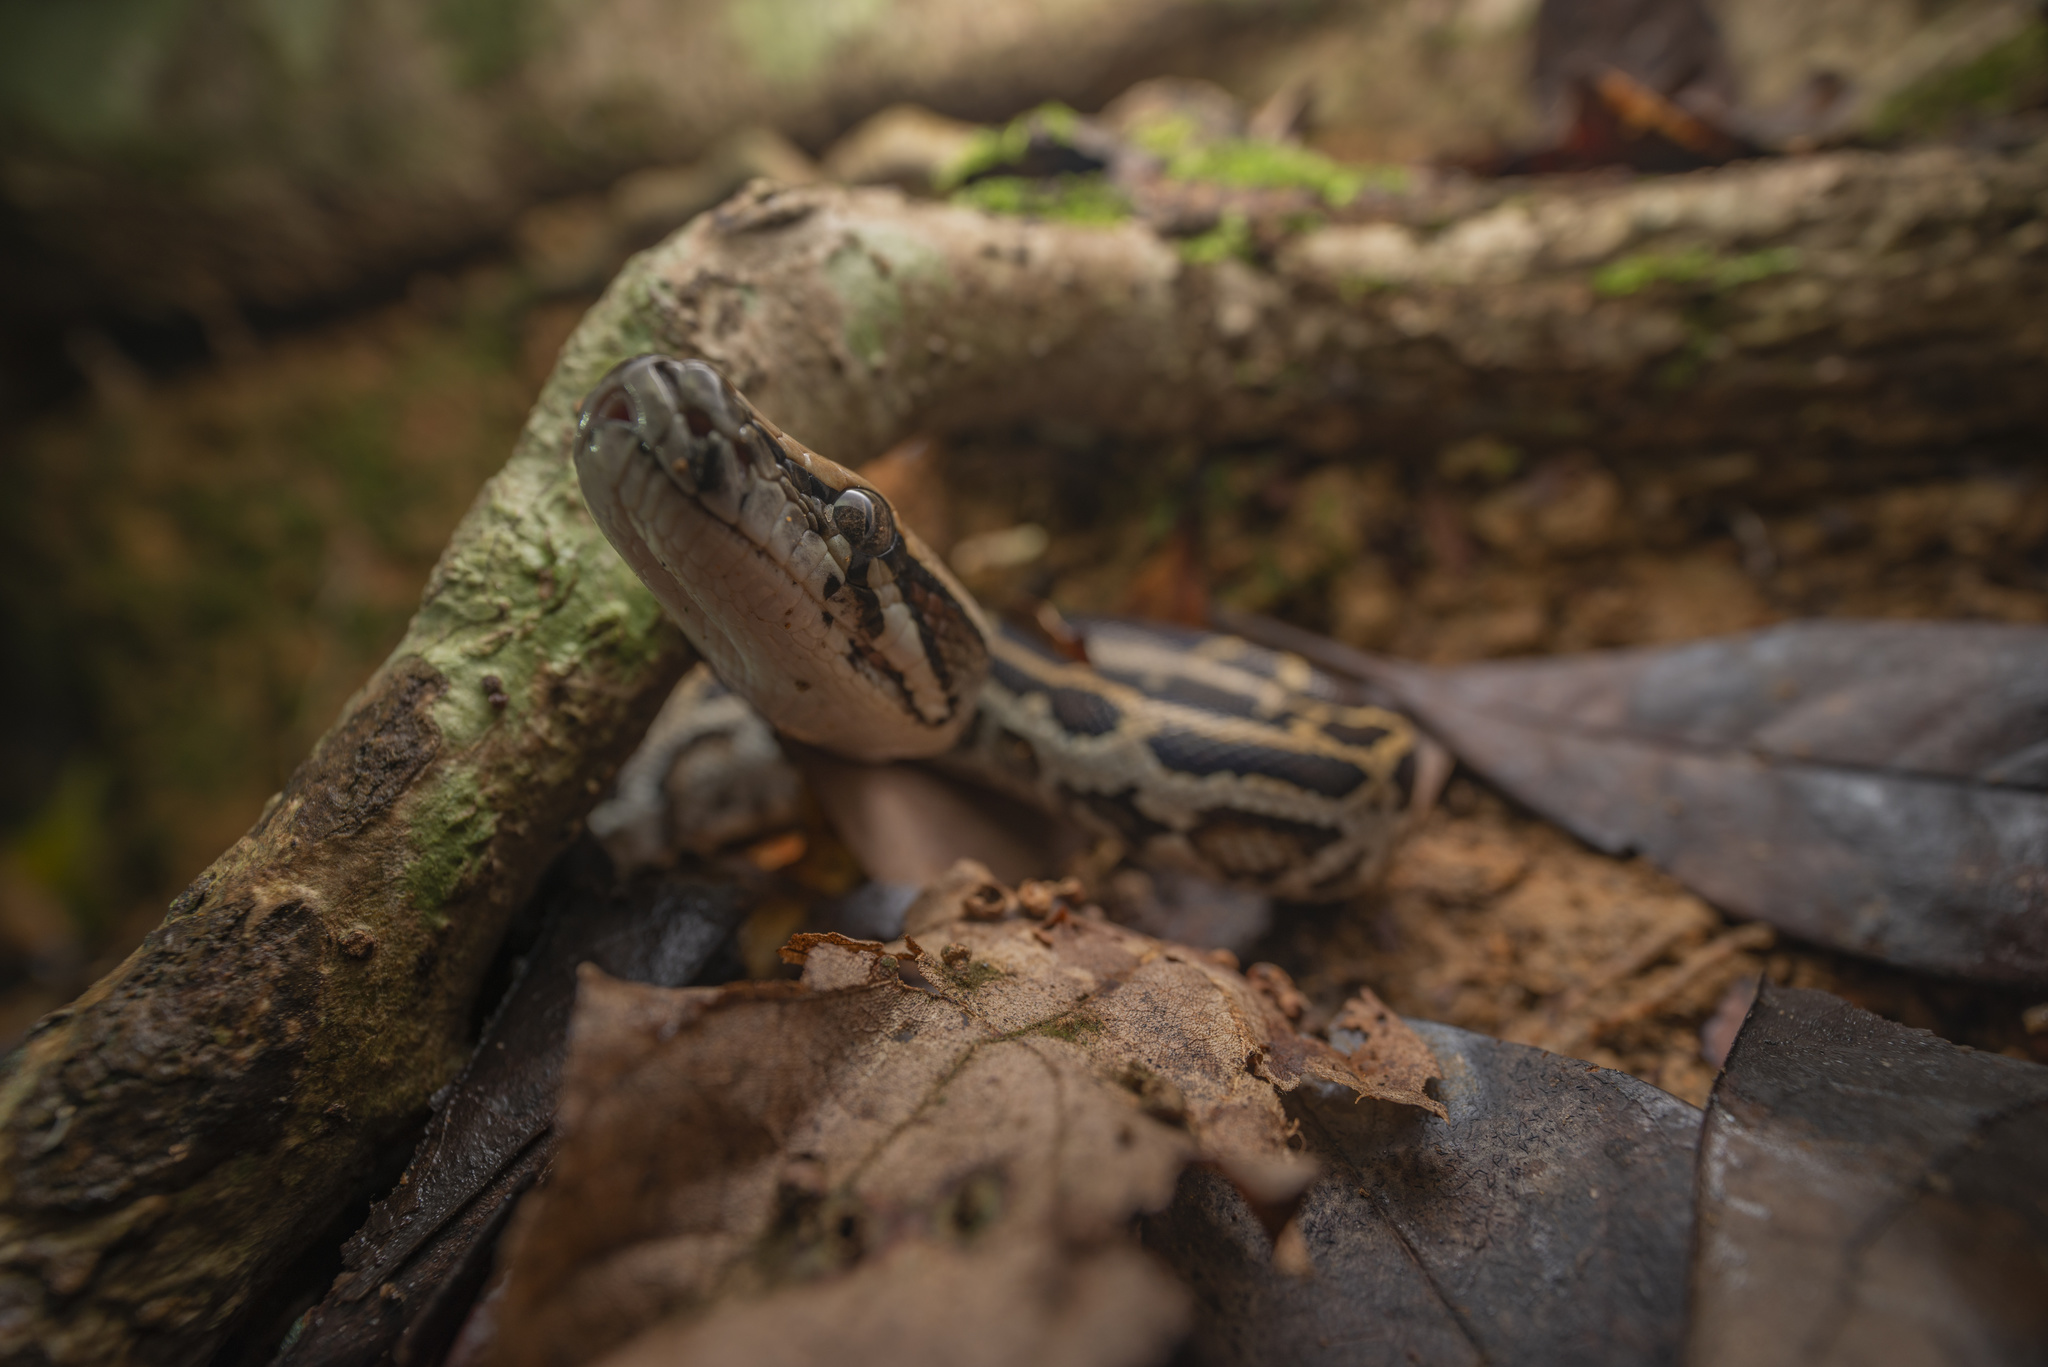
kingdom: Animalia
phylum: Chordata
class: Squamata
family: Pythonidae
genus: Python
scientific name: Python bivittatus
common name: Burmese python
